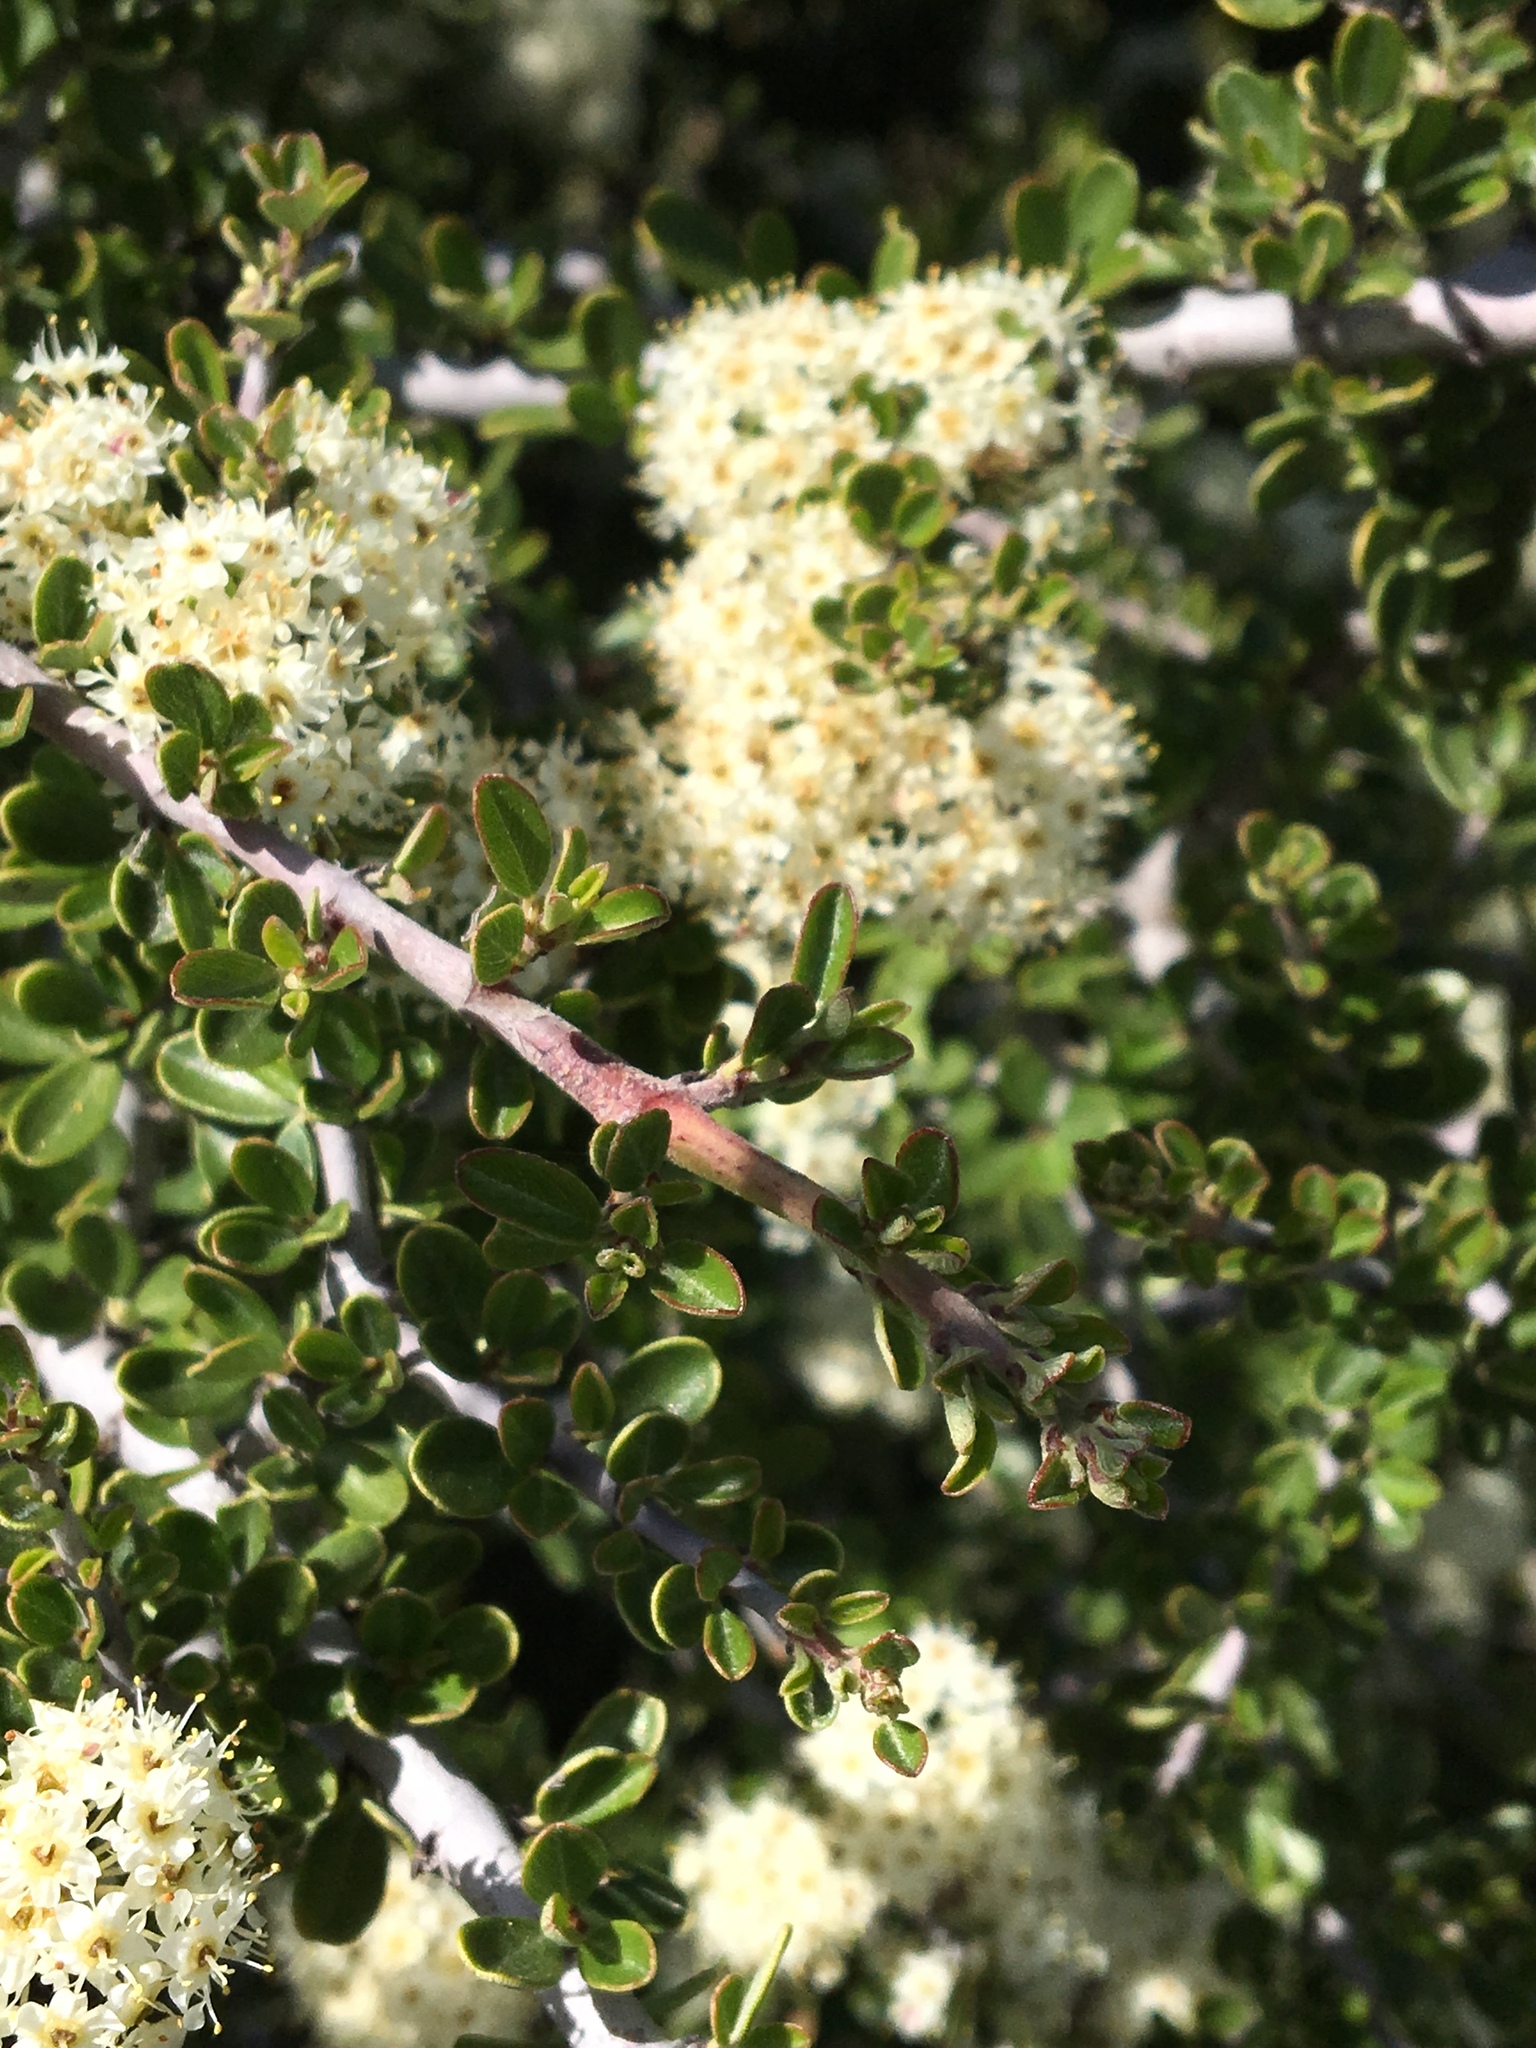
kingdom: Plantae
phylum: Tracheophyta
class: Magnoliopsida
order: Rosales
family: Rhamnaceae
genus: Ceanothus
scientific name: Ceanothus cuneatus
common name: Cuneate ceanothus
